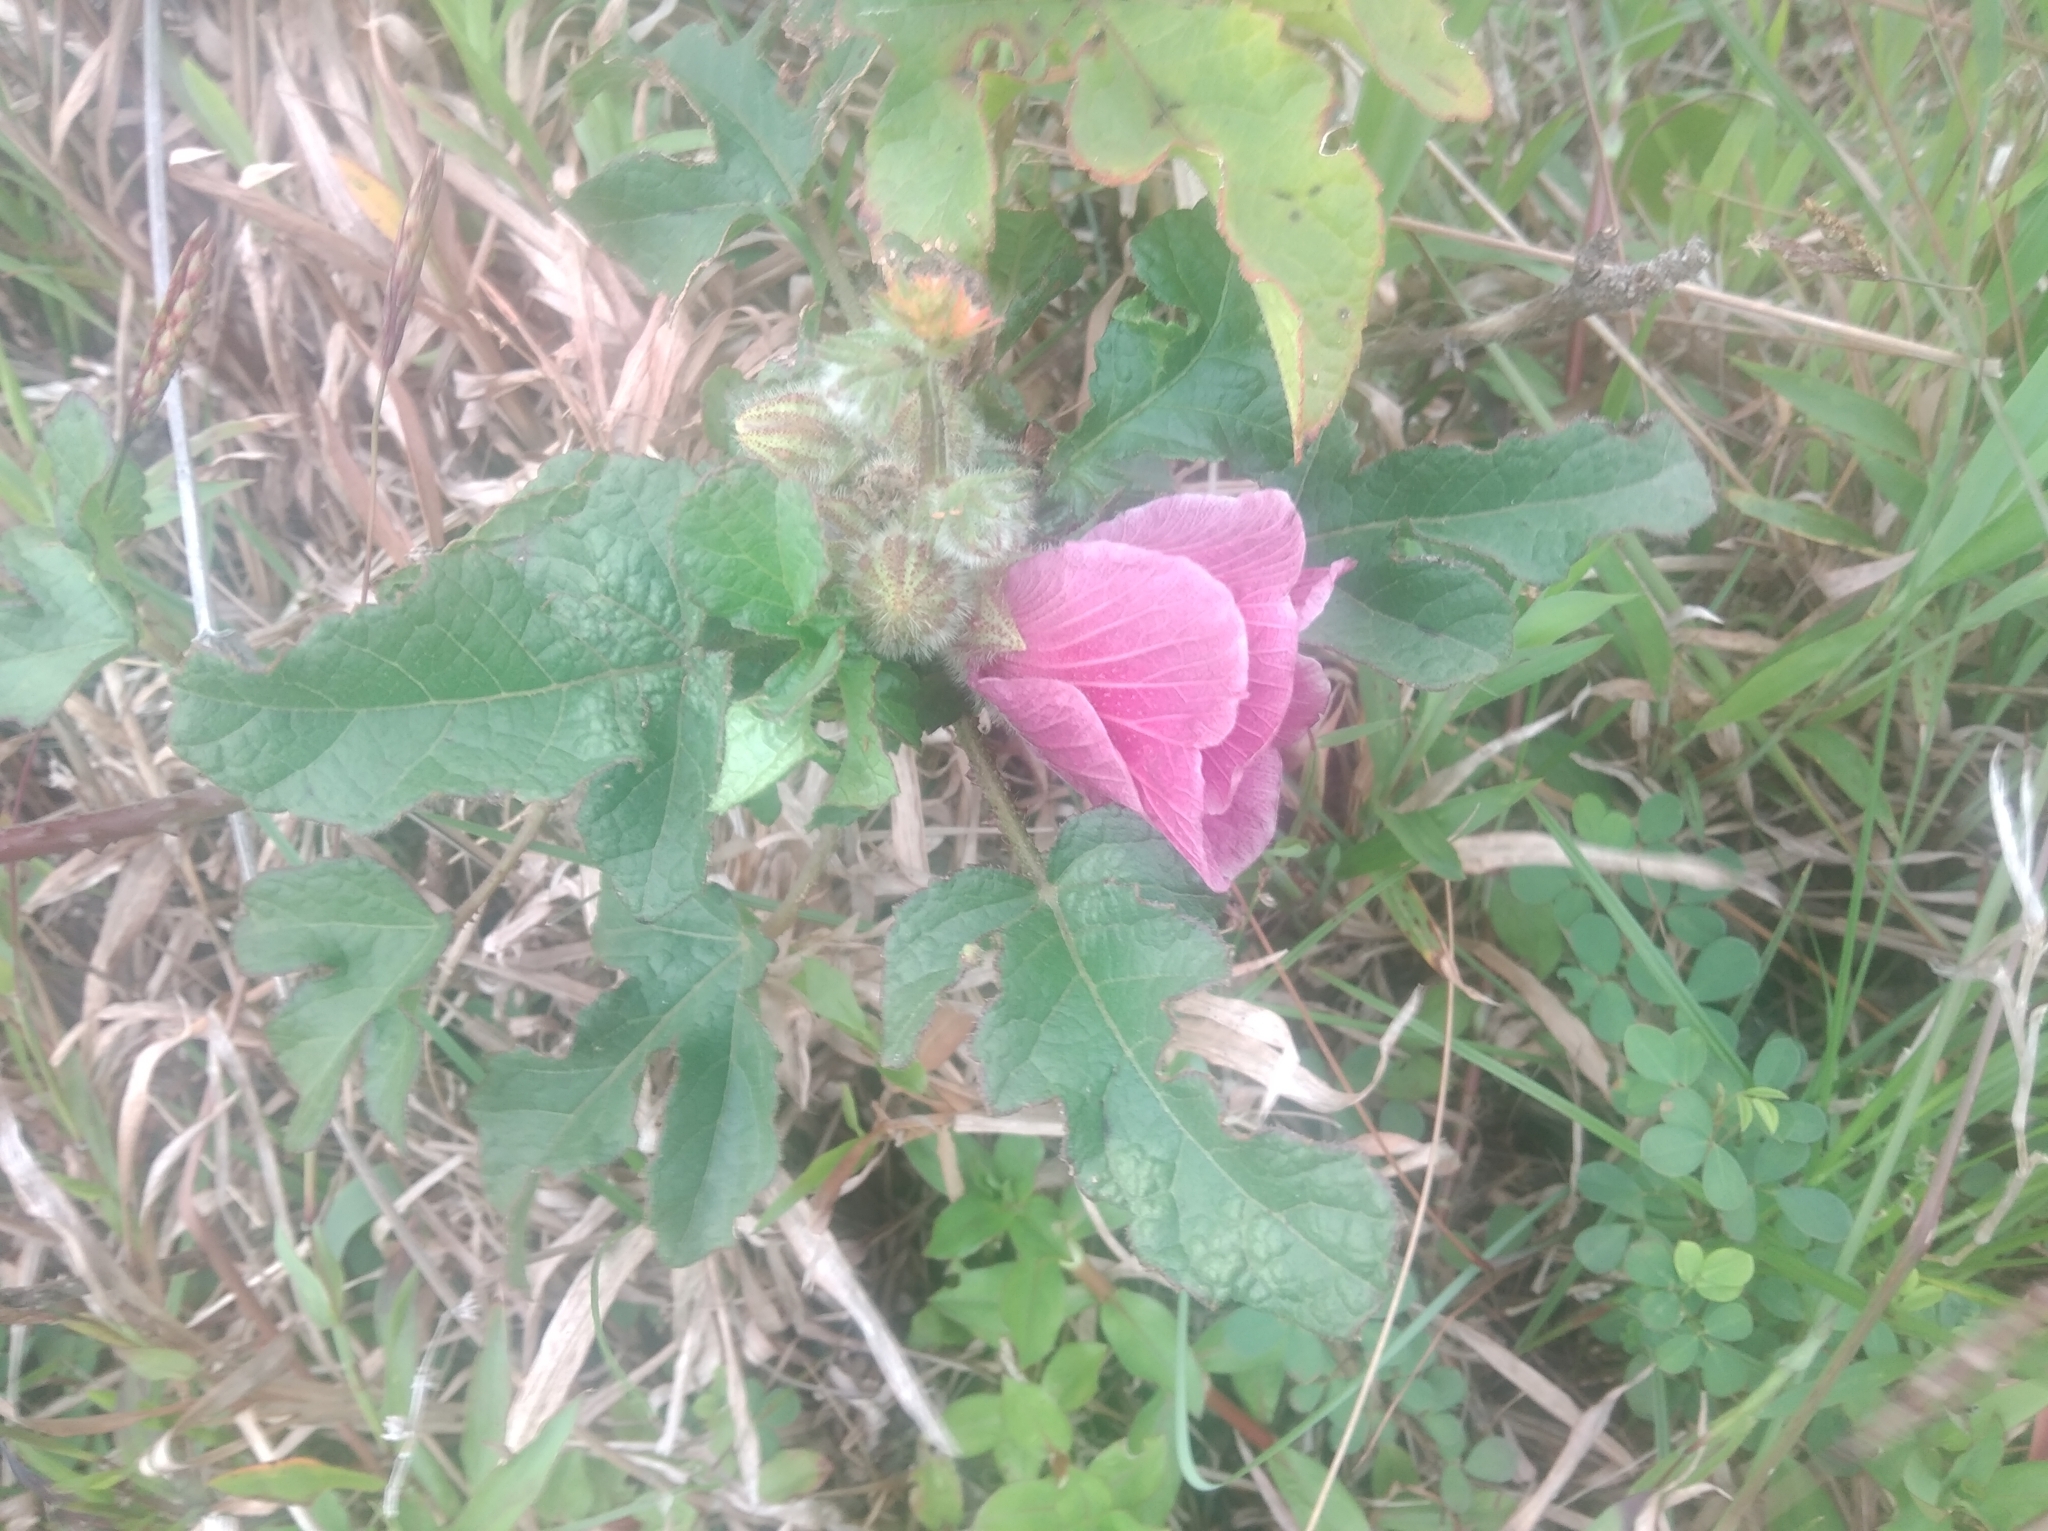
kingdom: Plantae
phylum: Tracheophyta
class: Magnoliopsida
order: Malvales
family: Malvaceae
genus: Hibiscus
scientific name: Hibiscus diversifolius
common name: Cape hibiscus
